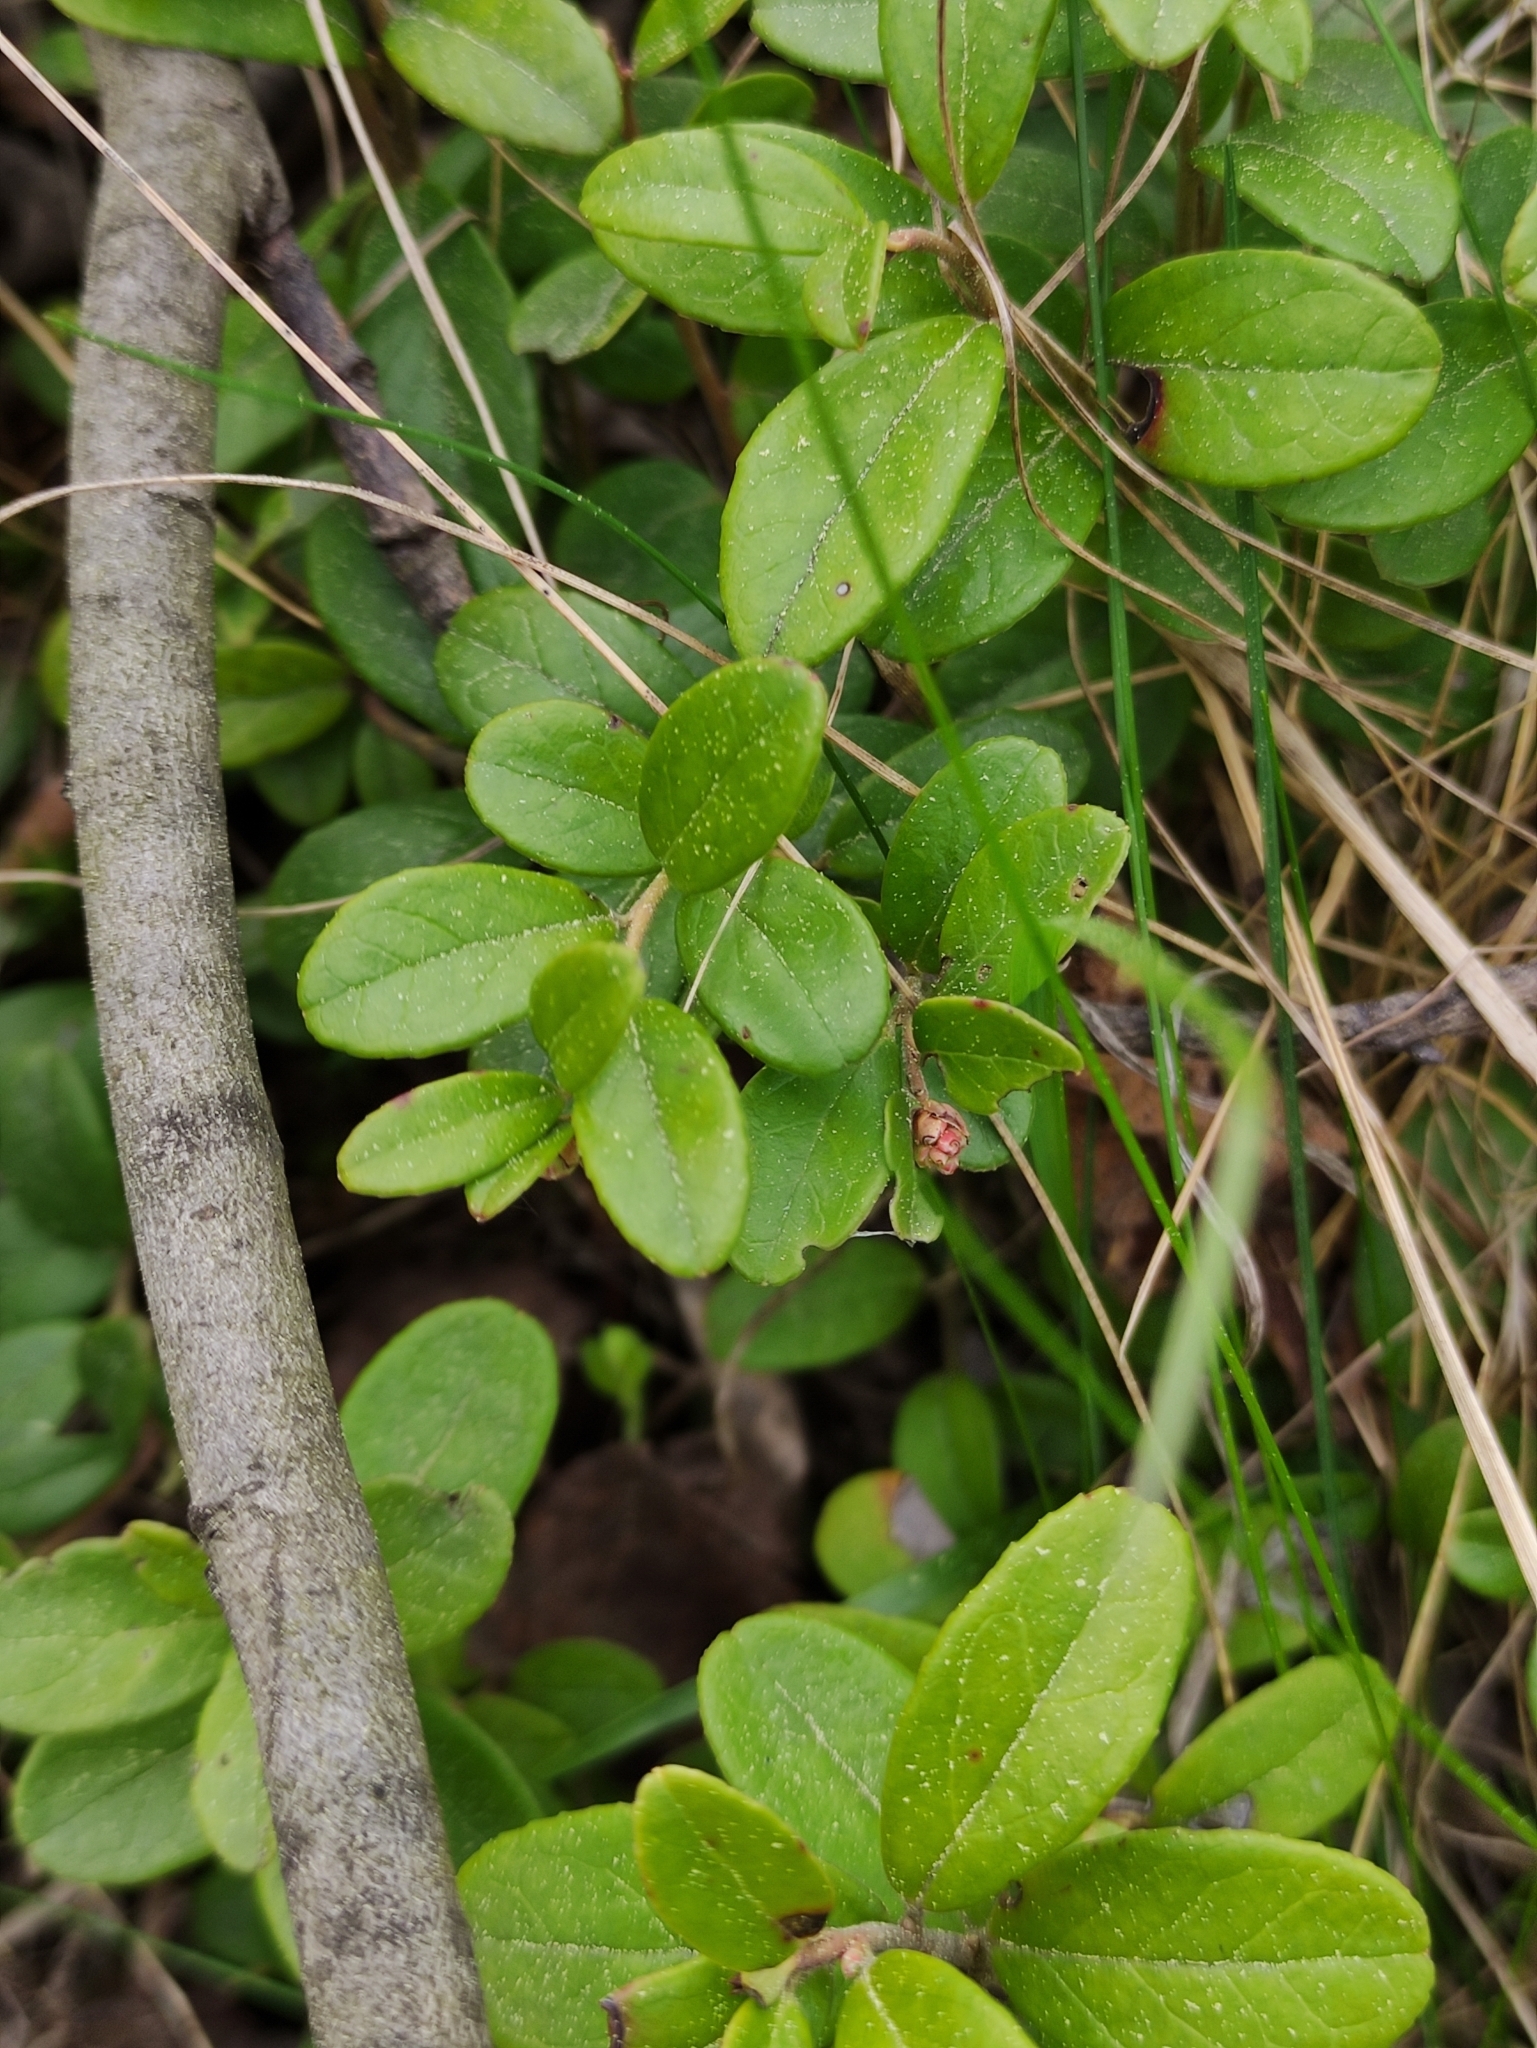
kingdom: Plantae
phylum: Tracheophyta
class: Magnoliopsida
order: Ericales
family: Ericaceae
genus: Vaccinium
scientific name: Vaccinium vitis-idaea
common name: Cowberry
